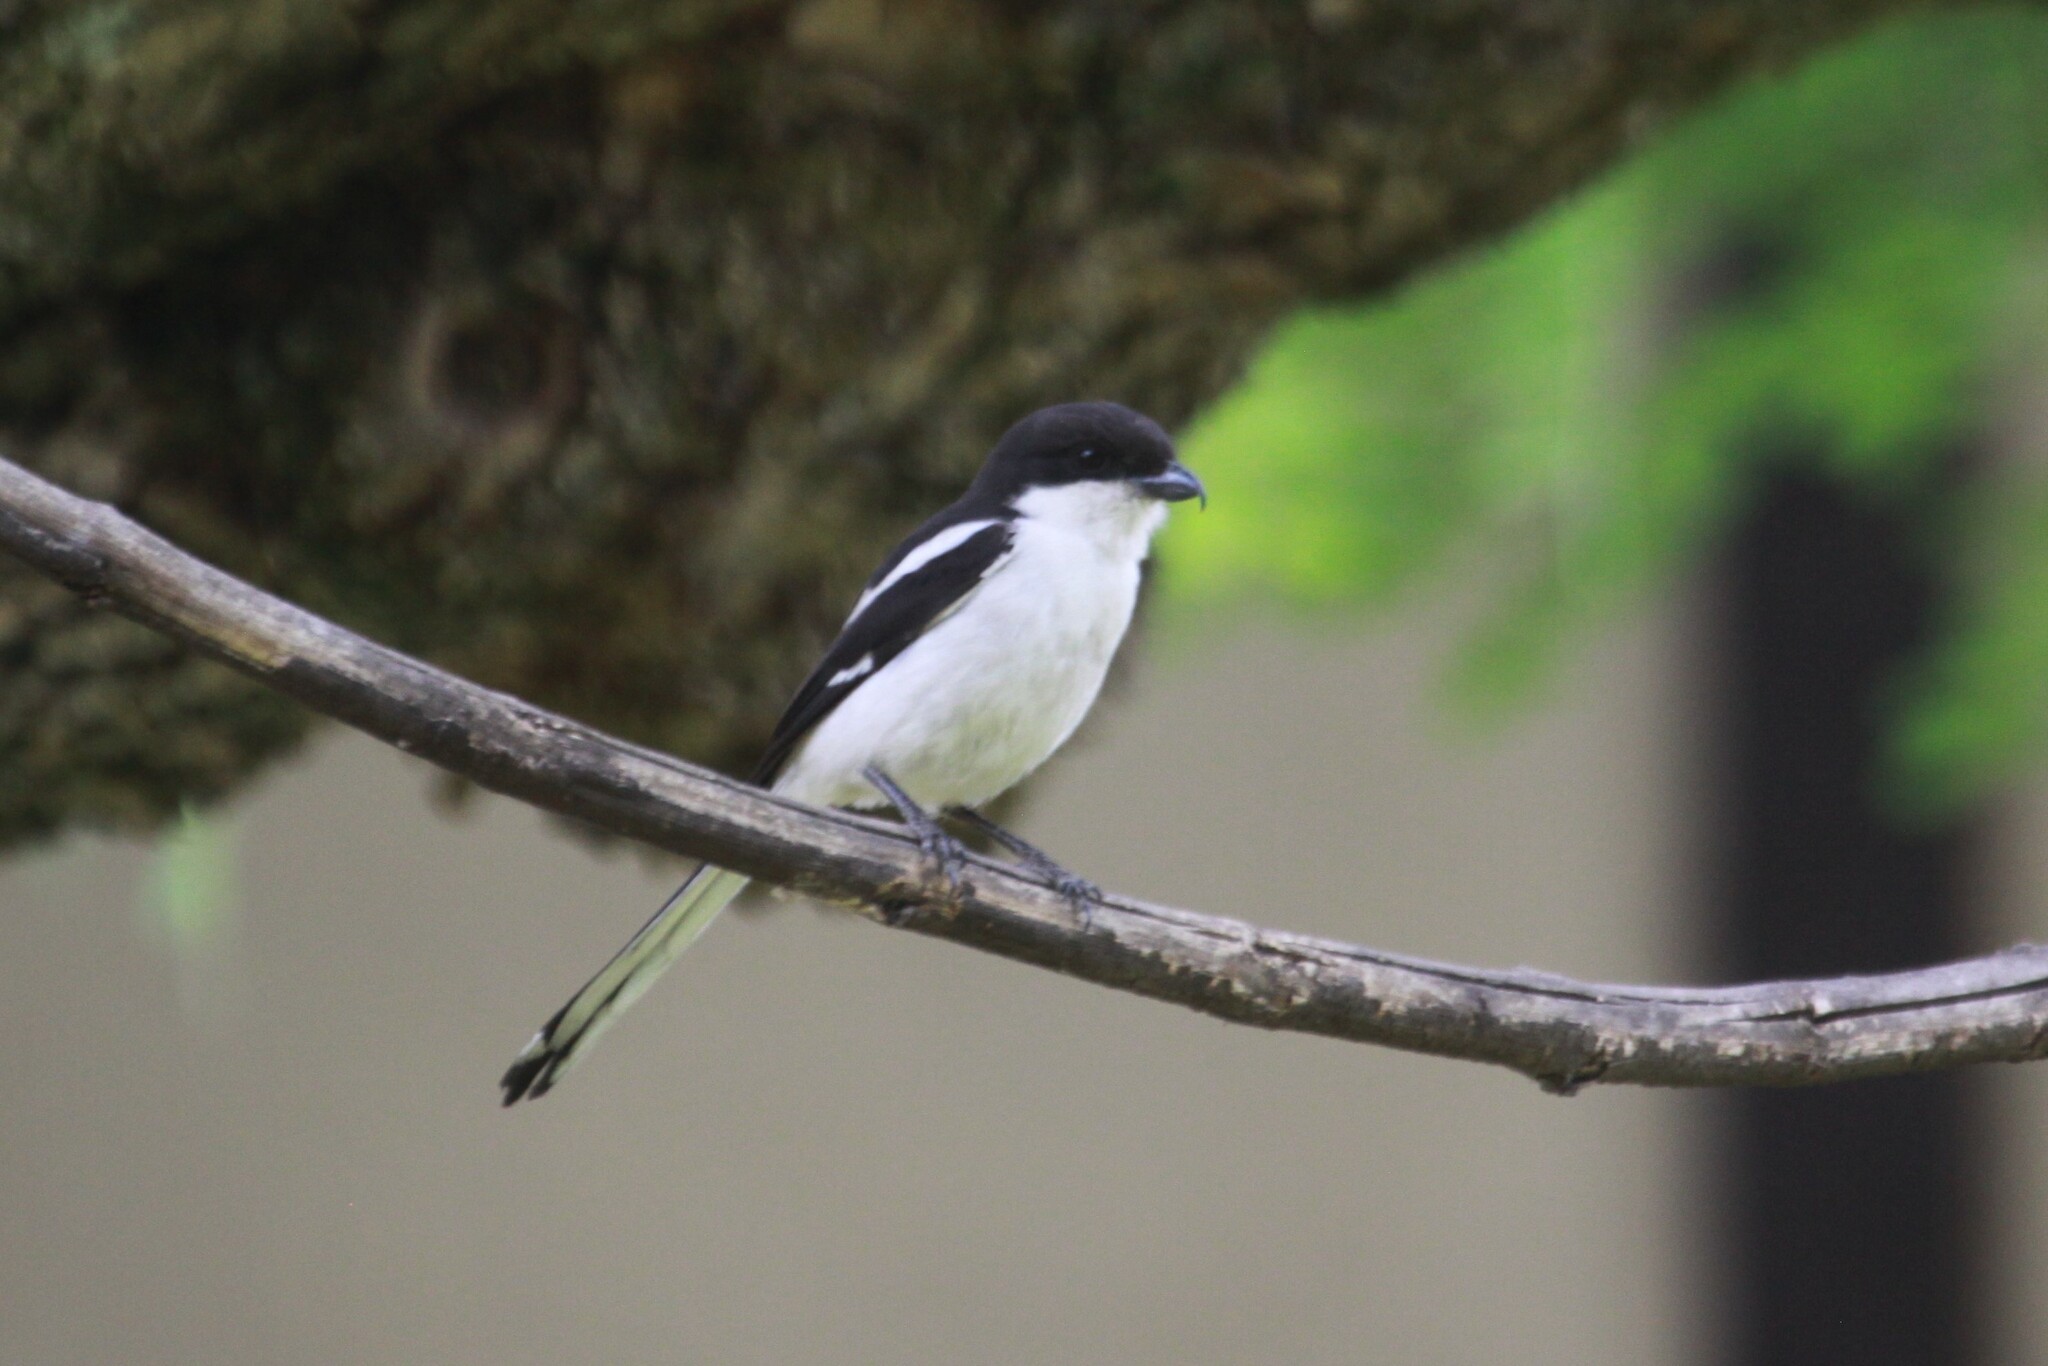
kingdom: Animalia
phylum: Chordata
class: Aves
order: Passeriformes
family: Laniidae
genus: Lanius
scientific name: Lanius collaris
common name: Southern fiscal
